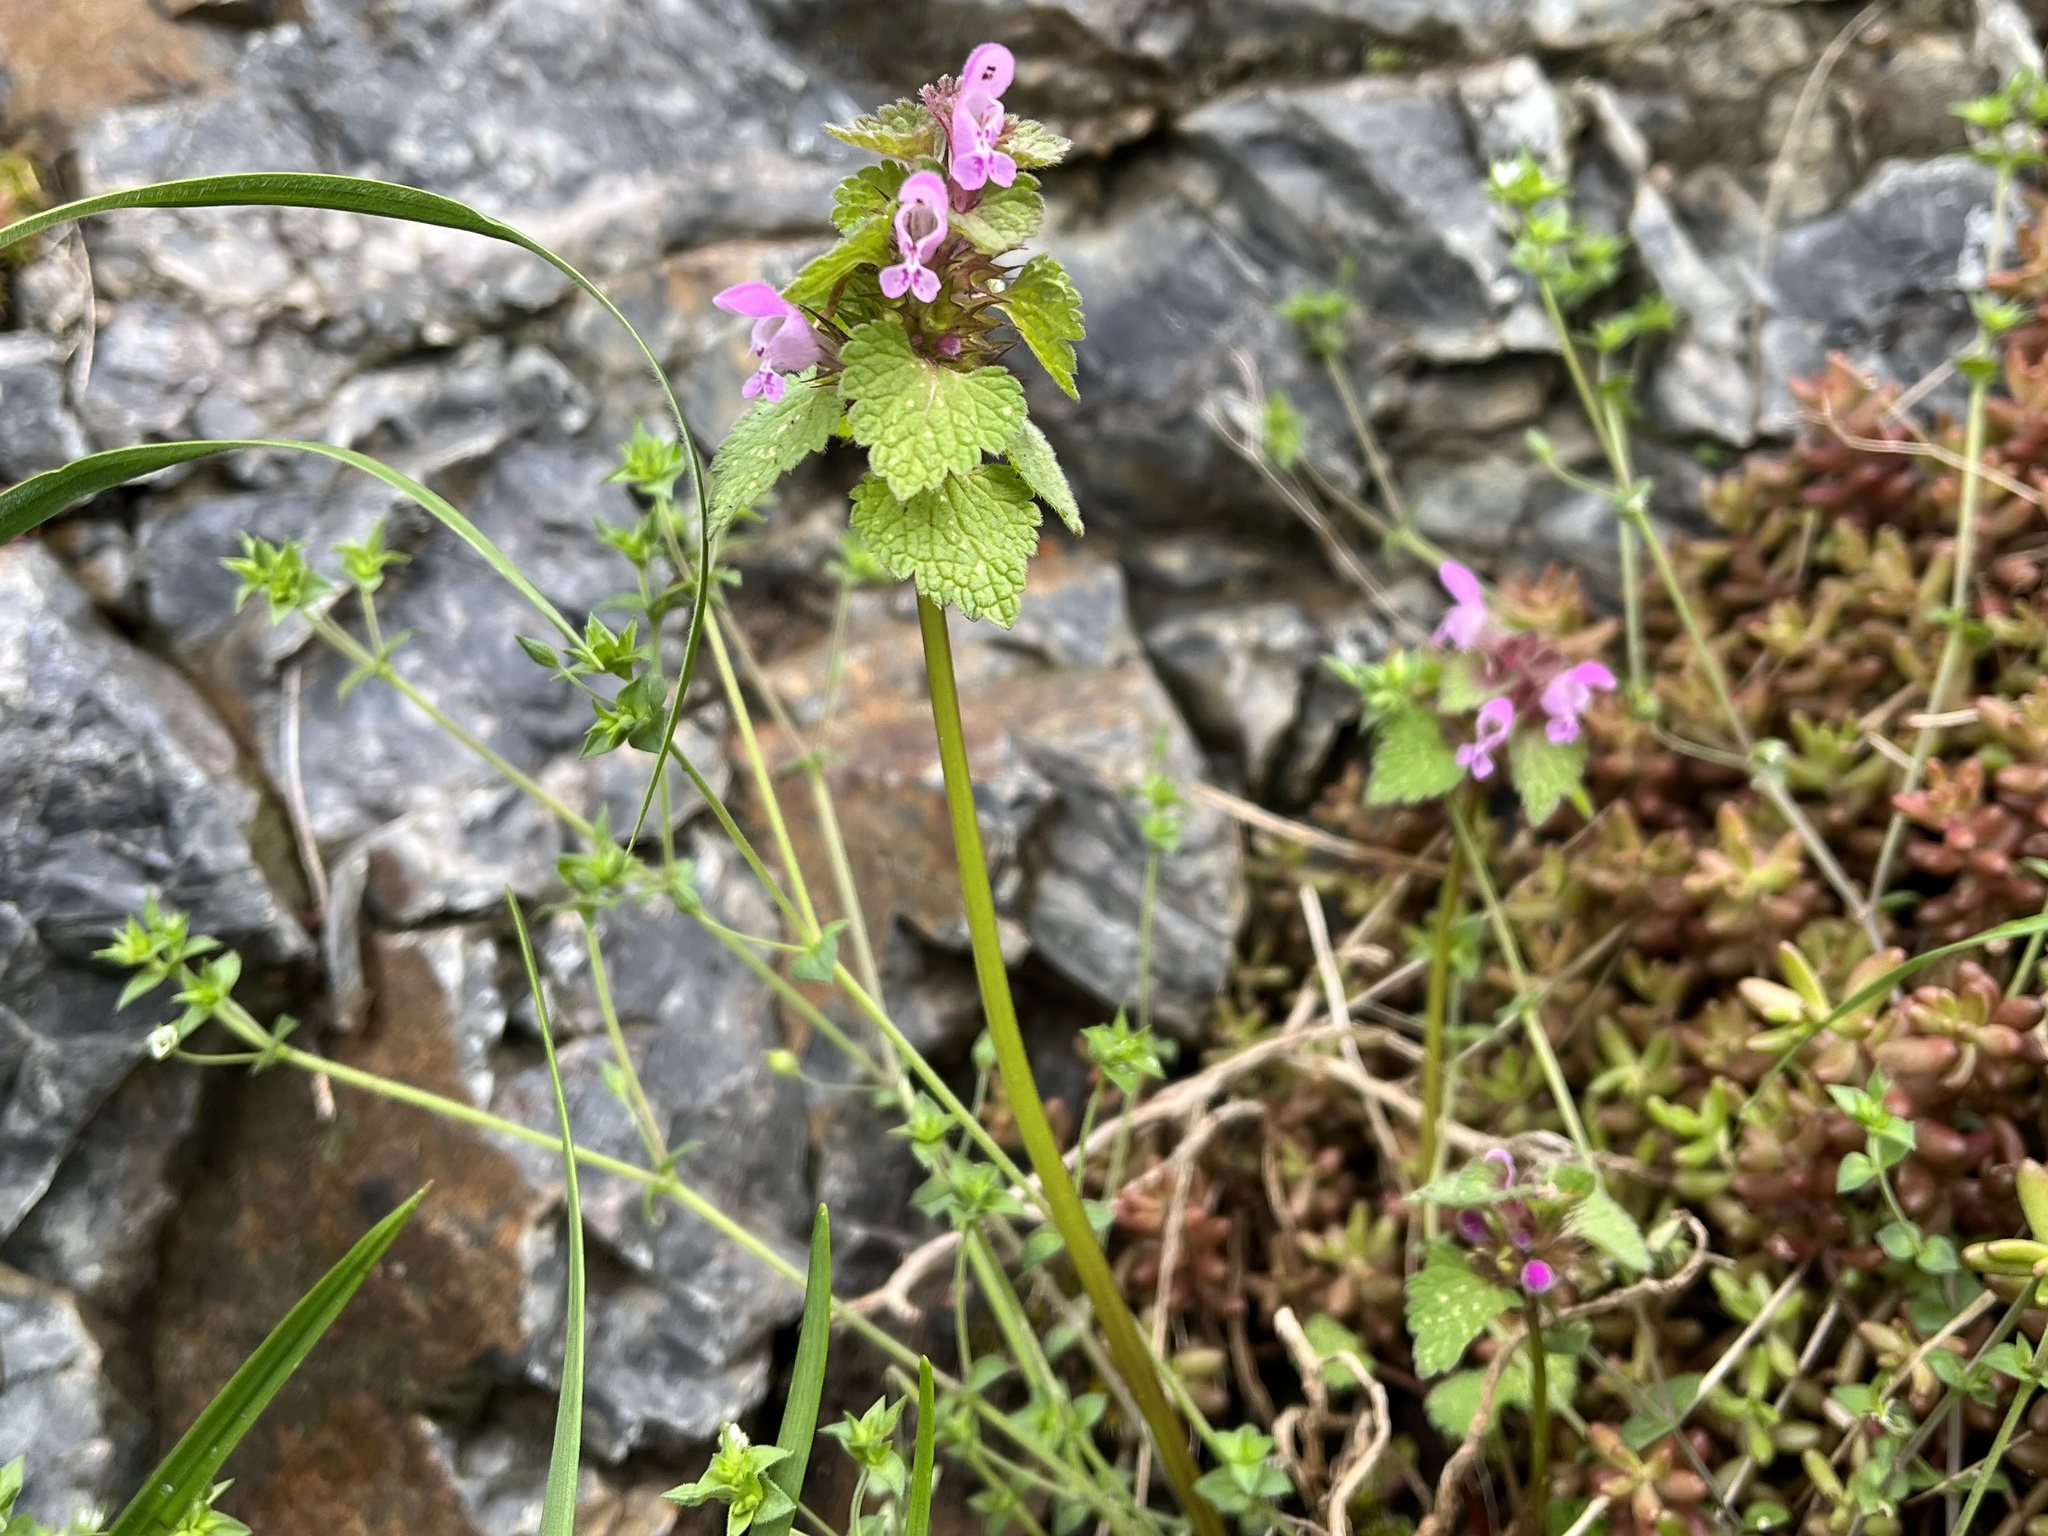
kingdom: Plantae
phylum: Tracheophyta
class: Magnoliopsida
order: Lamiales
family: Lamiaceae
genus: Lamium
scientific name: Lamium purpureum
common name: Red dead-nettle
